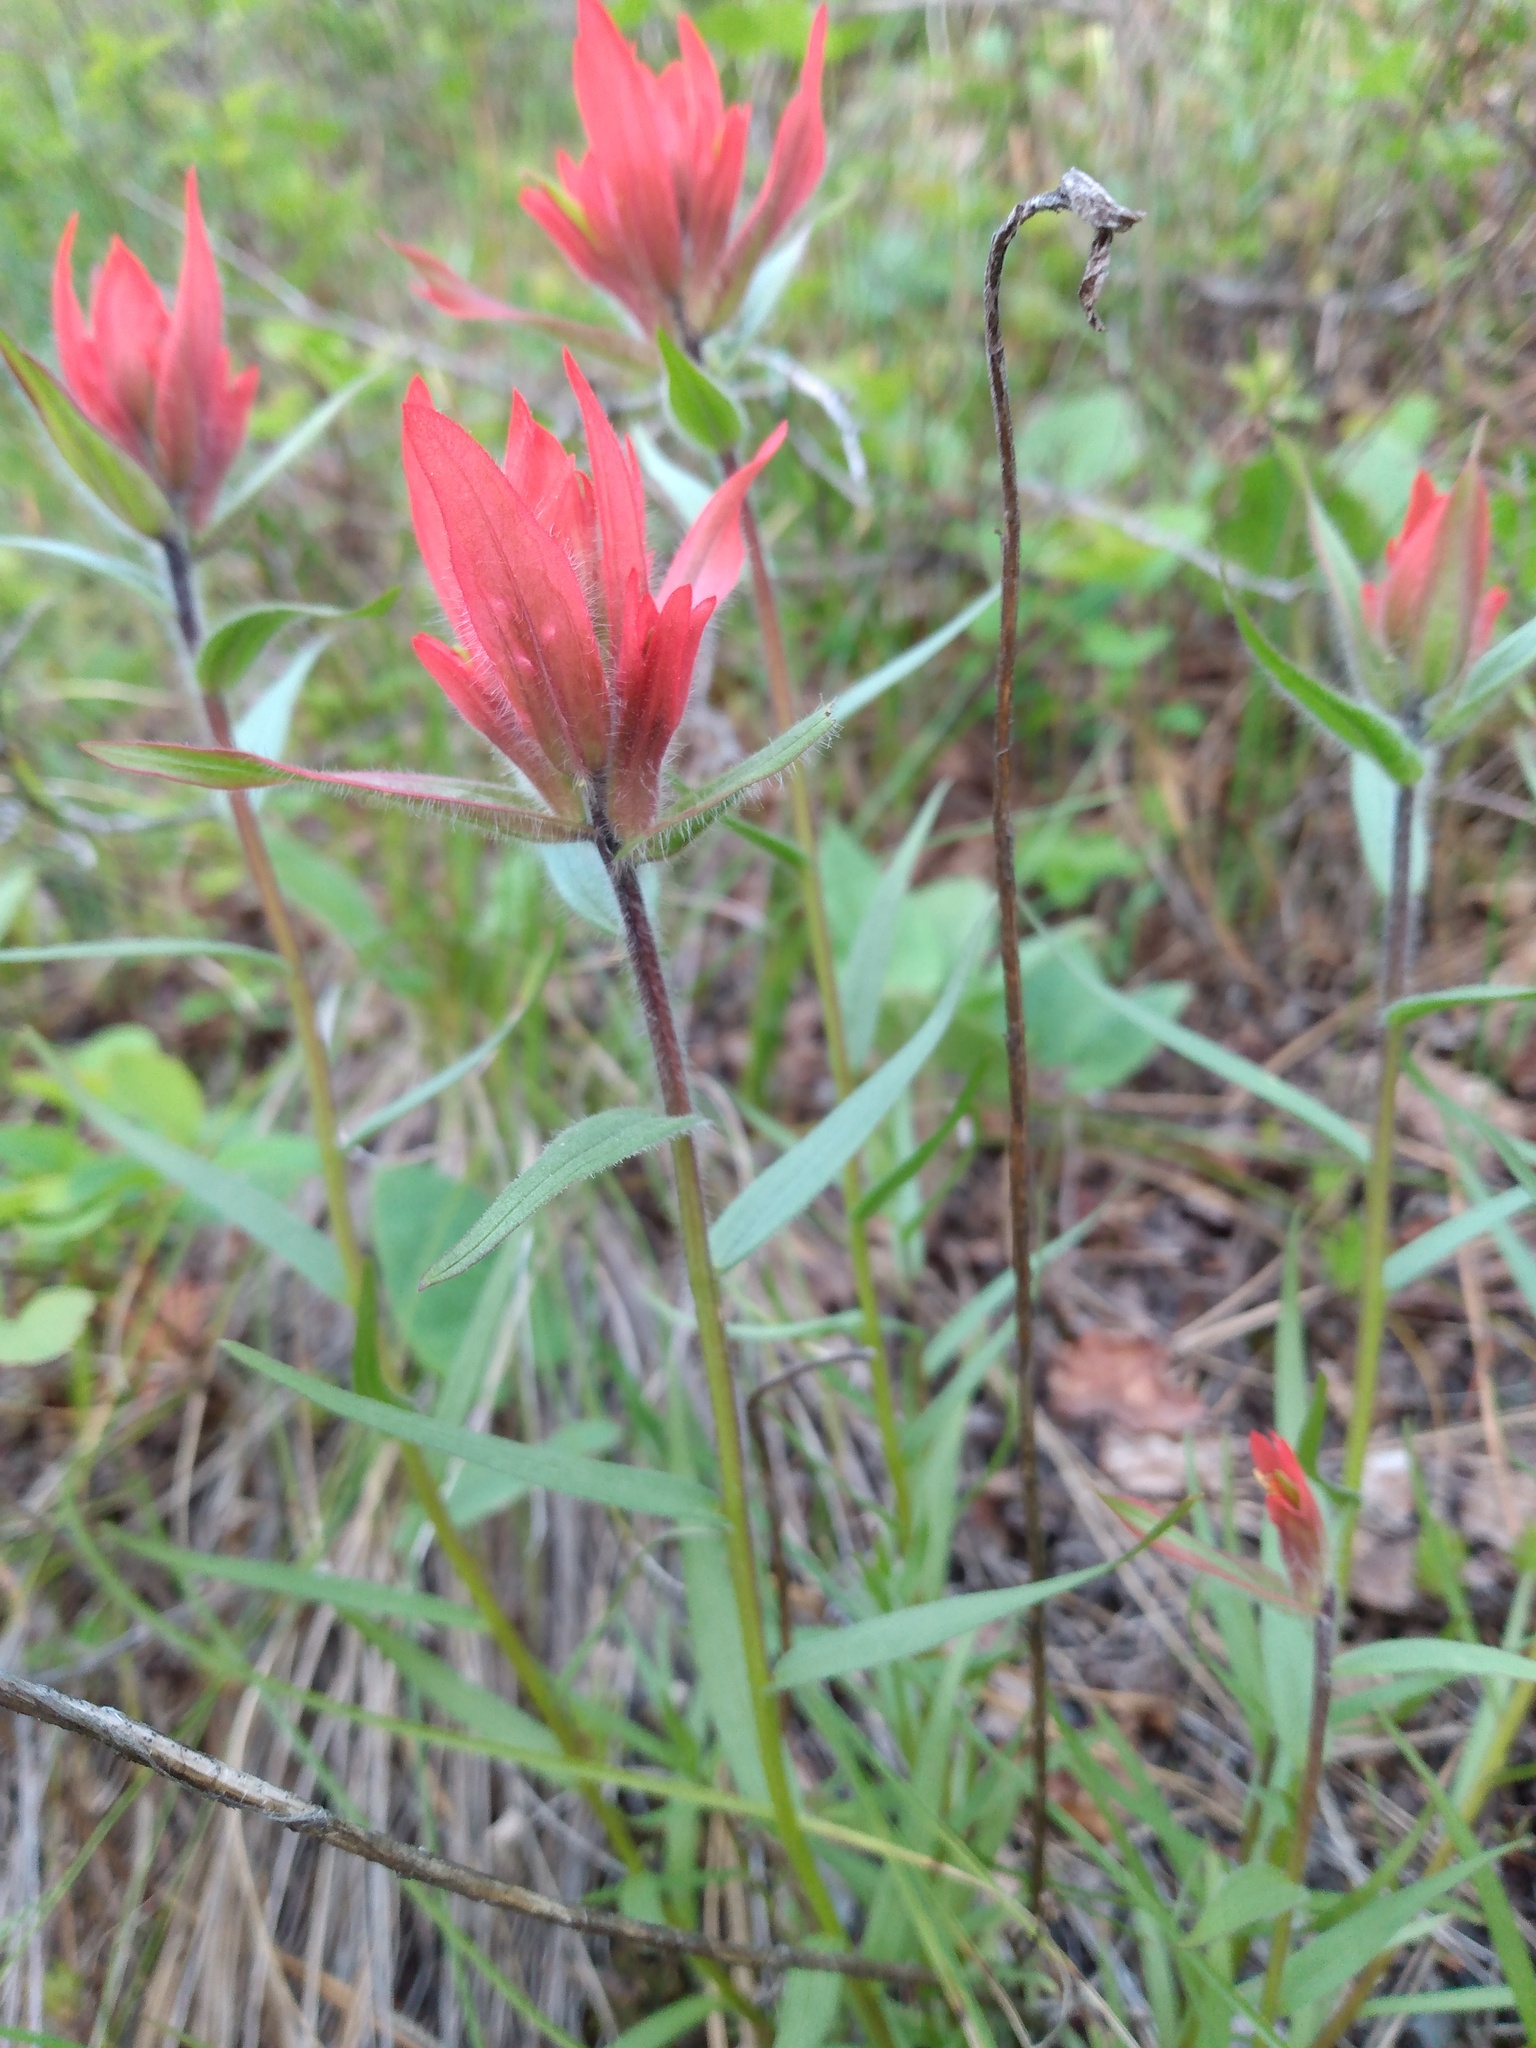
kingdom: Plantae
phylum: Tracheophyta
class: Magnoliopsida
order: Lamiales
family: Orobanchaceae
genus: Castilleja
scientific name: Castilleja miniata
